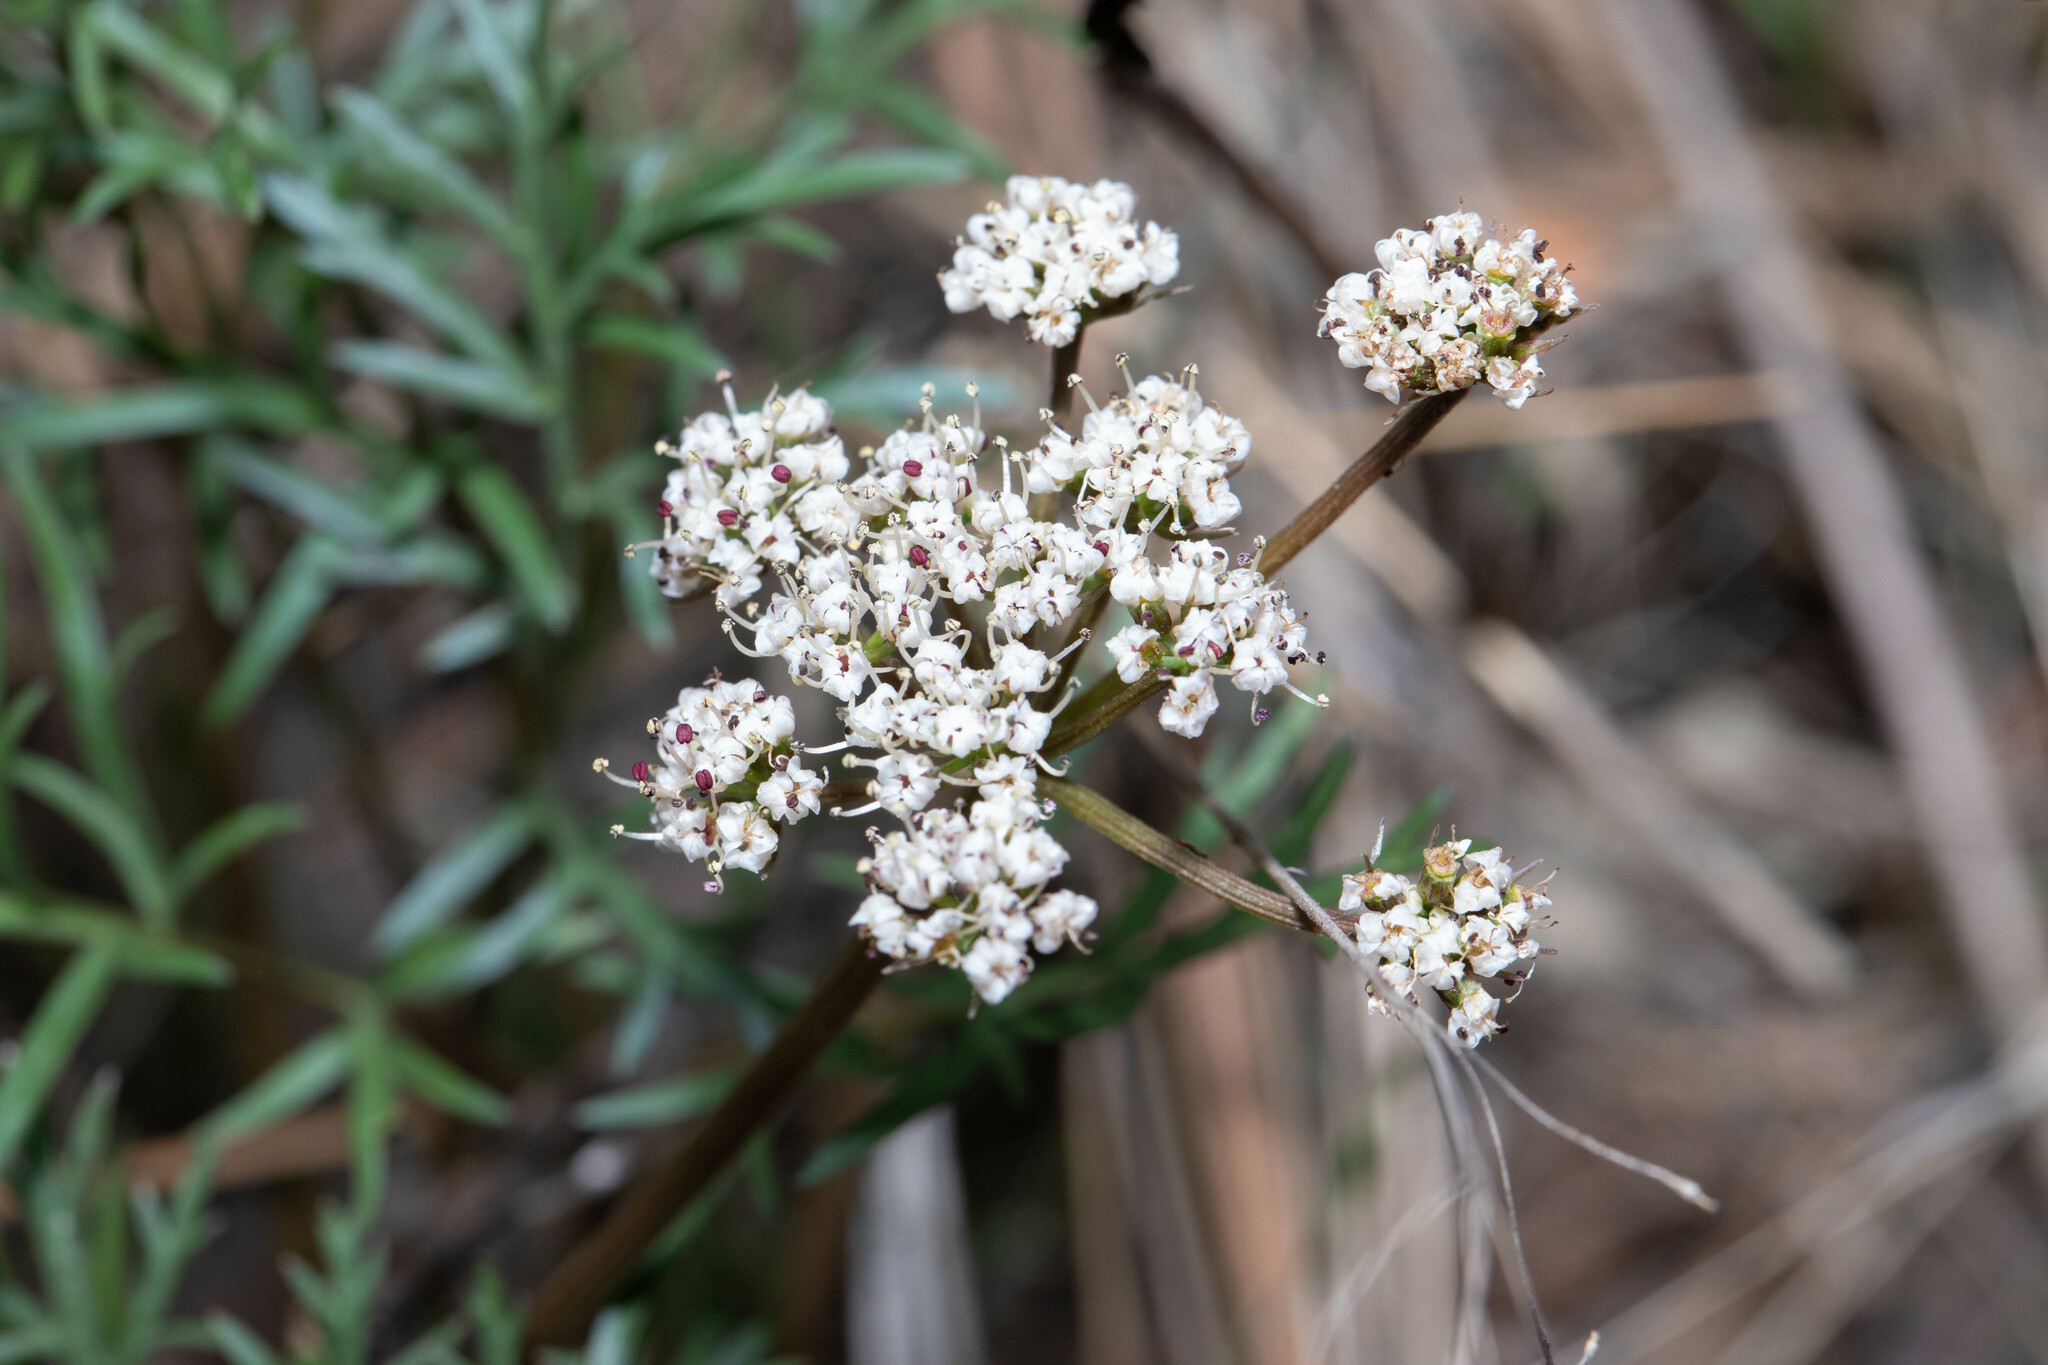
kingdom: Plantae
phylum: Tracheophyta
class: Magnoliopsida
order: Apiales
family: Apiaceae
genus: Lomatium
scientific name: Lomatium geyeri
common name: Geyer's biscuitroot
